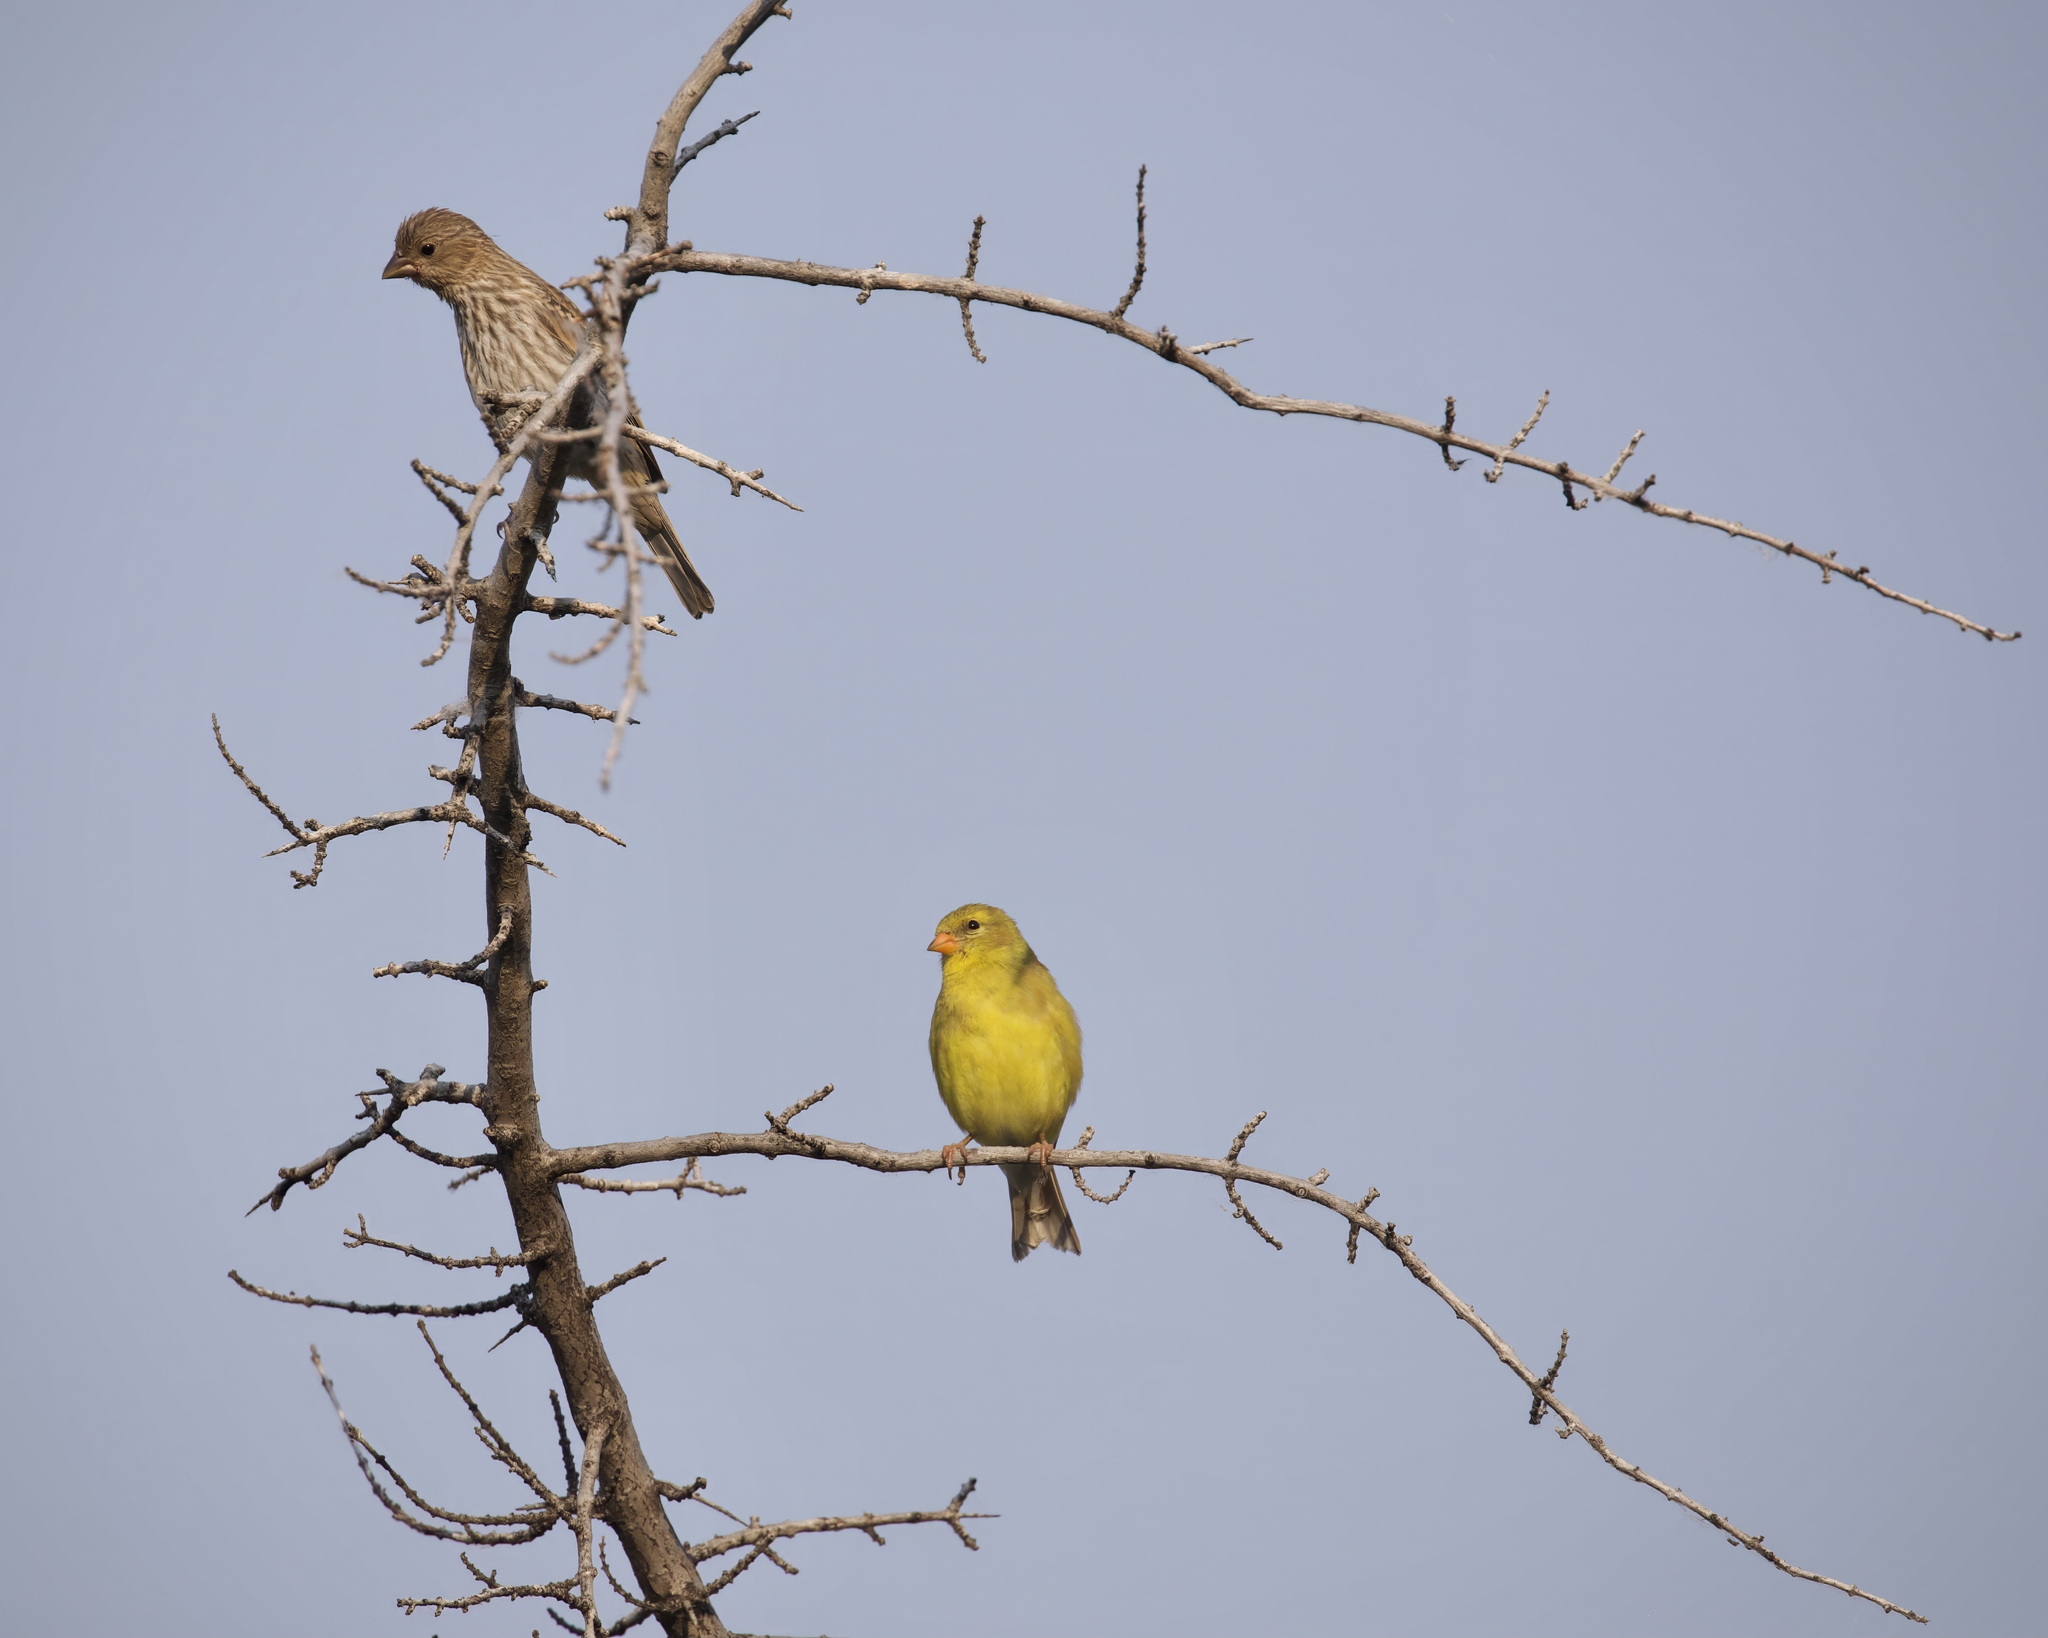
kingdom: Animalia
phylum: Chordata
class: Aves
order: Passeriformes
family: Fringillidae
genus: Spinus
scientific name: Spinus tristis
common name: American goldfinch
